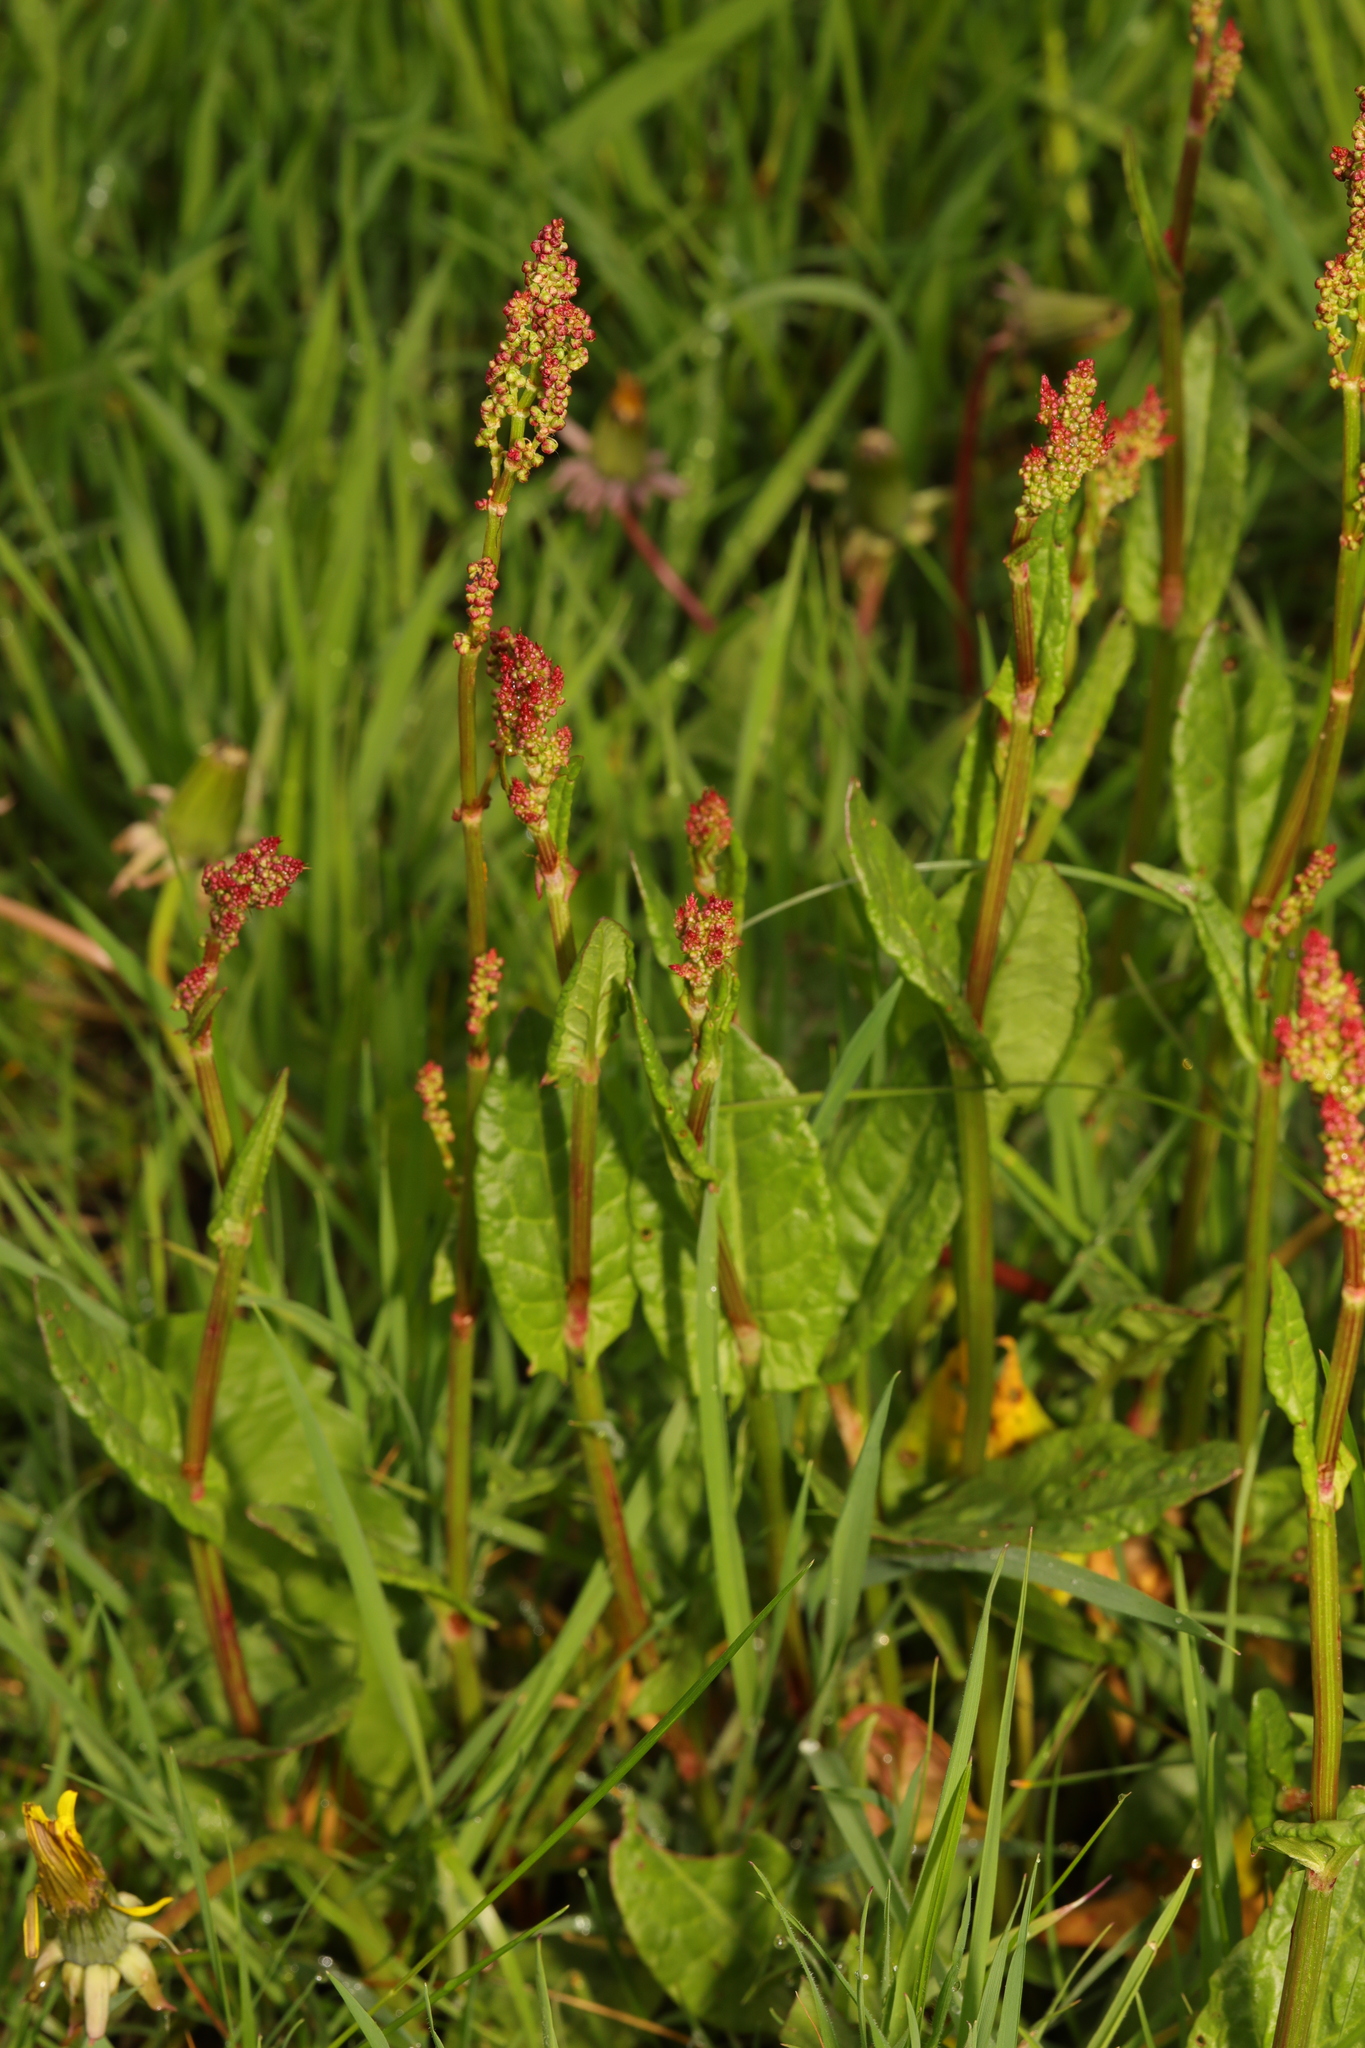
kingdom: Plantae
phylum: Tracheophyta
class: Magnoliopsida
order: Caryophyllales
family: Polygonaceae
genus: Rumex
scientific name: Rumex acetosa
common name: Garden sorrel
